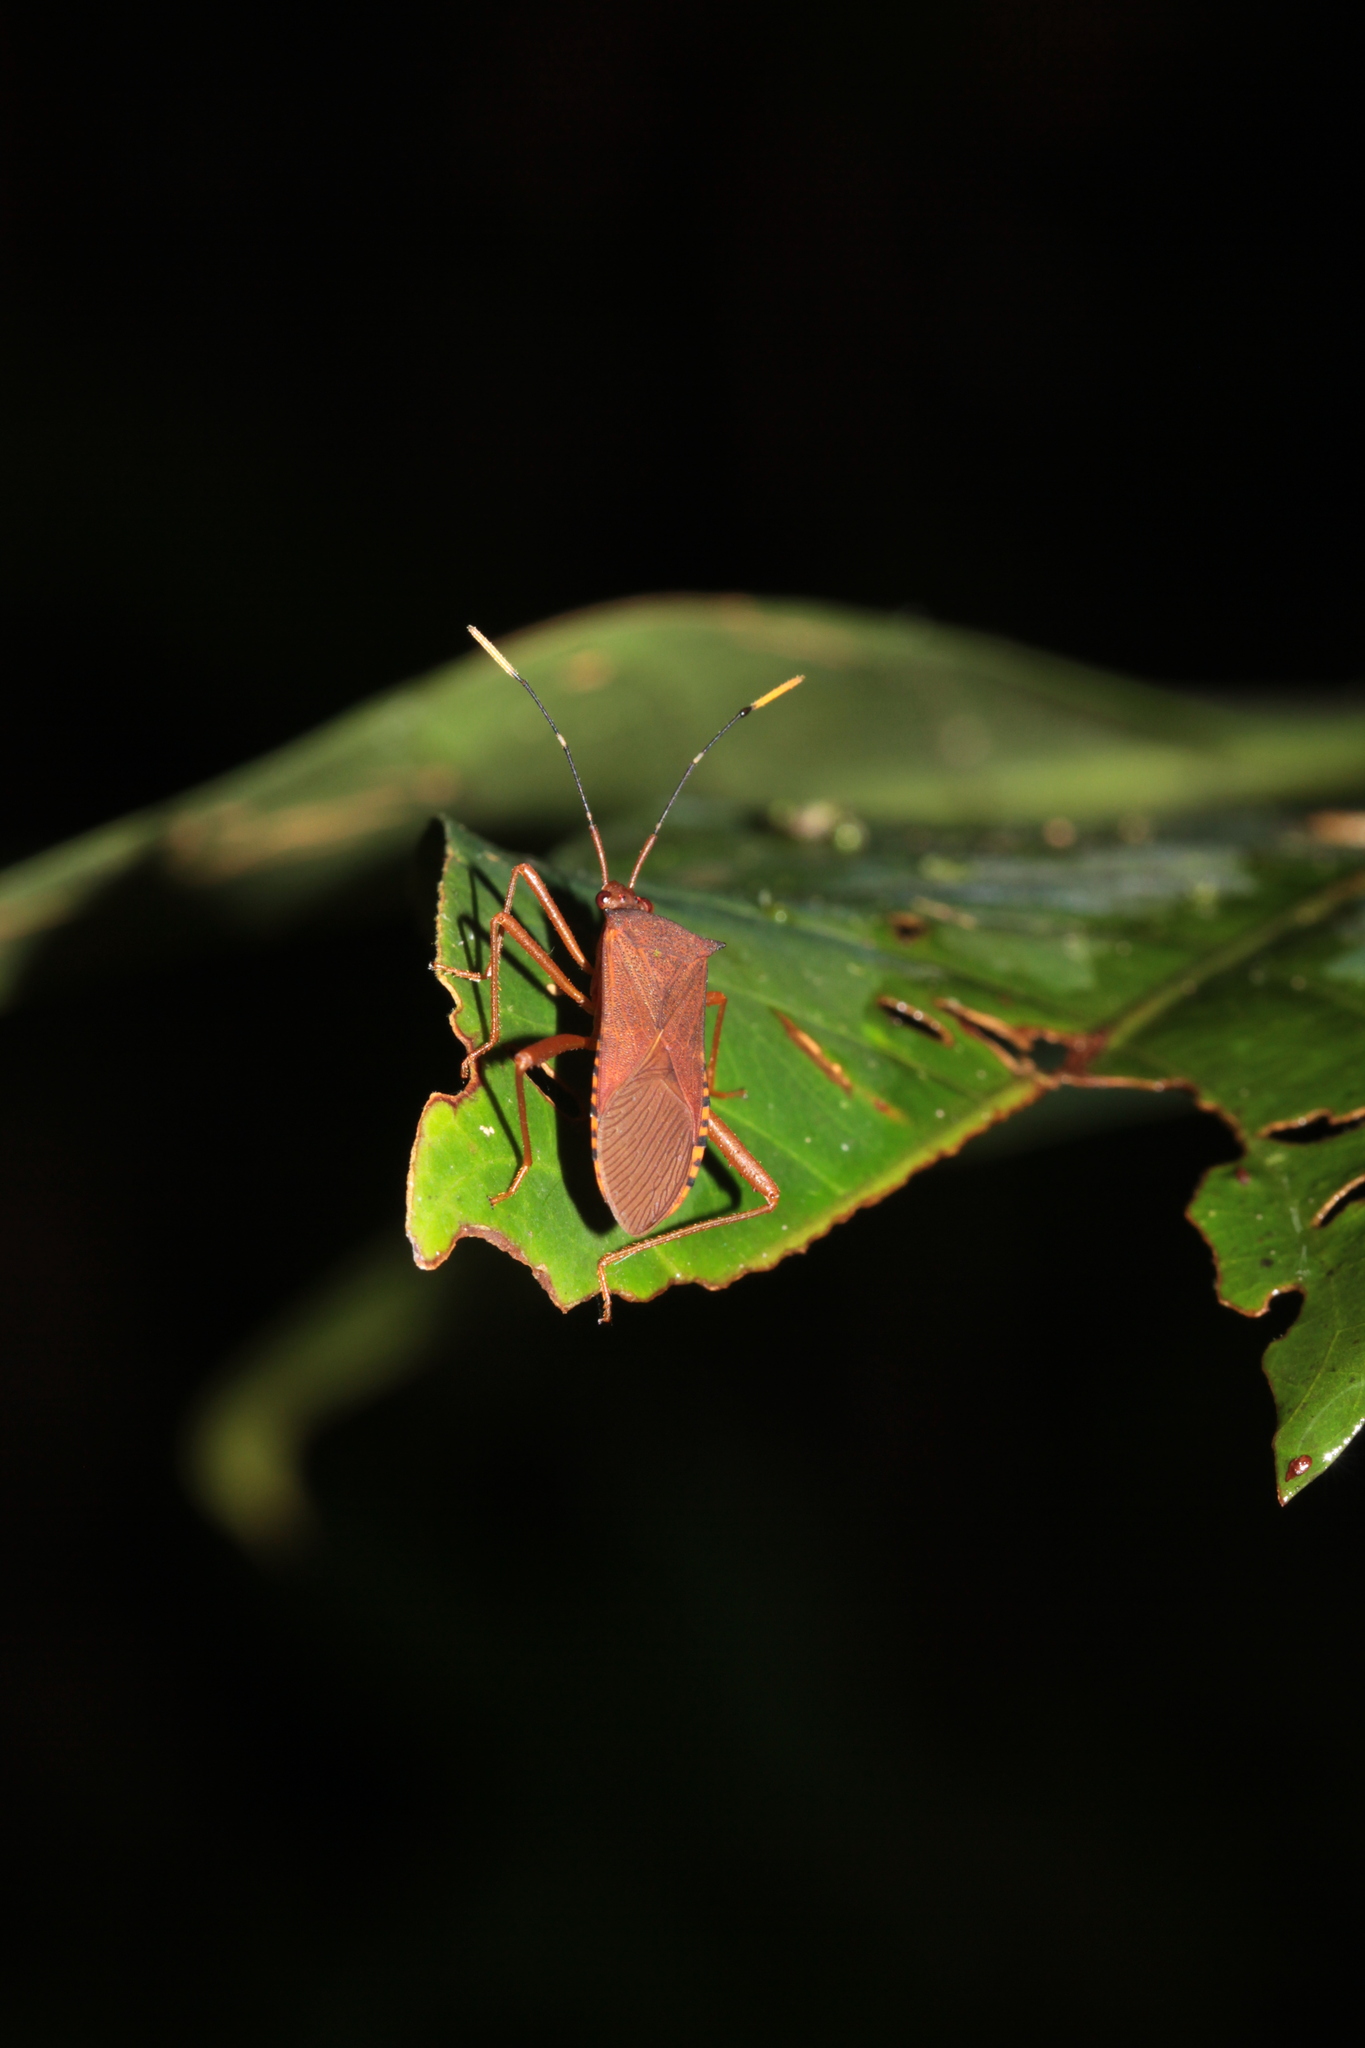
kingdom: Animalia
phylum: Arthropoda
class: Insecta
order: Hemiptera
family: Coreidae
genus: Leptoscelis
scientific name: Leptoscelis ribesi
